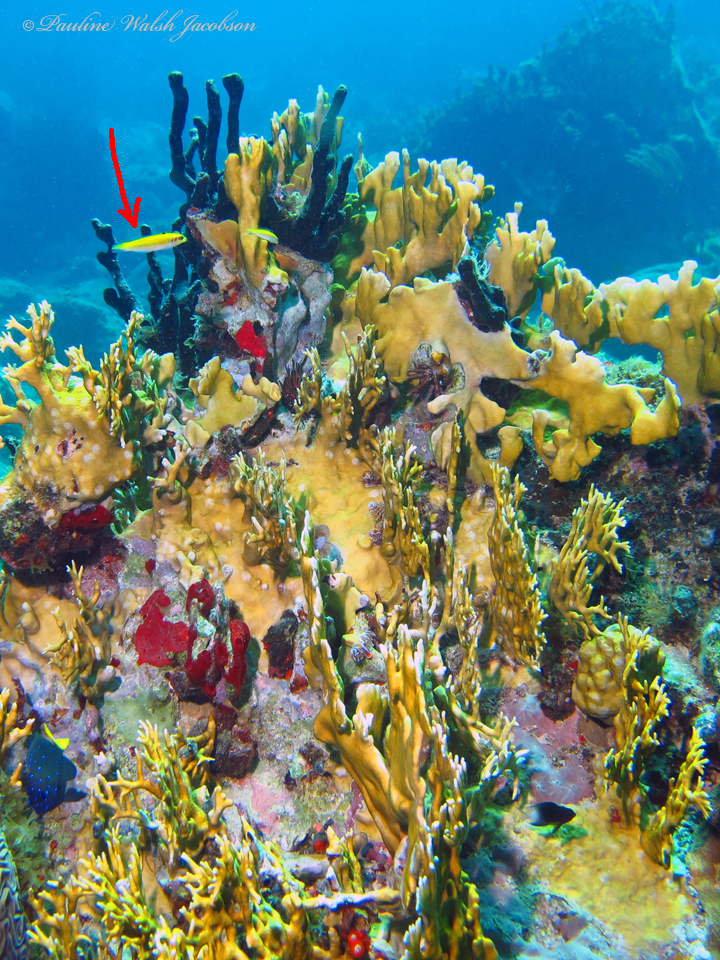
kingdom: Animalia
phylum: Chordata
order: Perciformes
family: Labridae
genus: Thalassoma
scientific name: Thalassoma bifasciatum
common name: Bluehead wrasse
